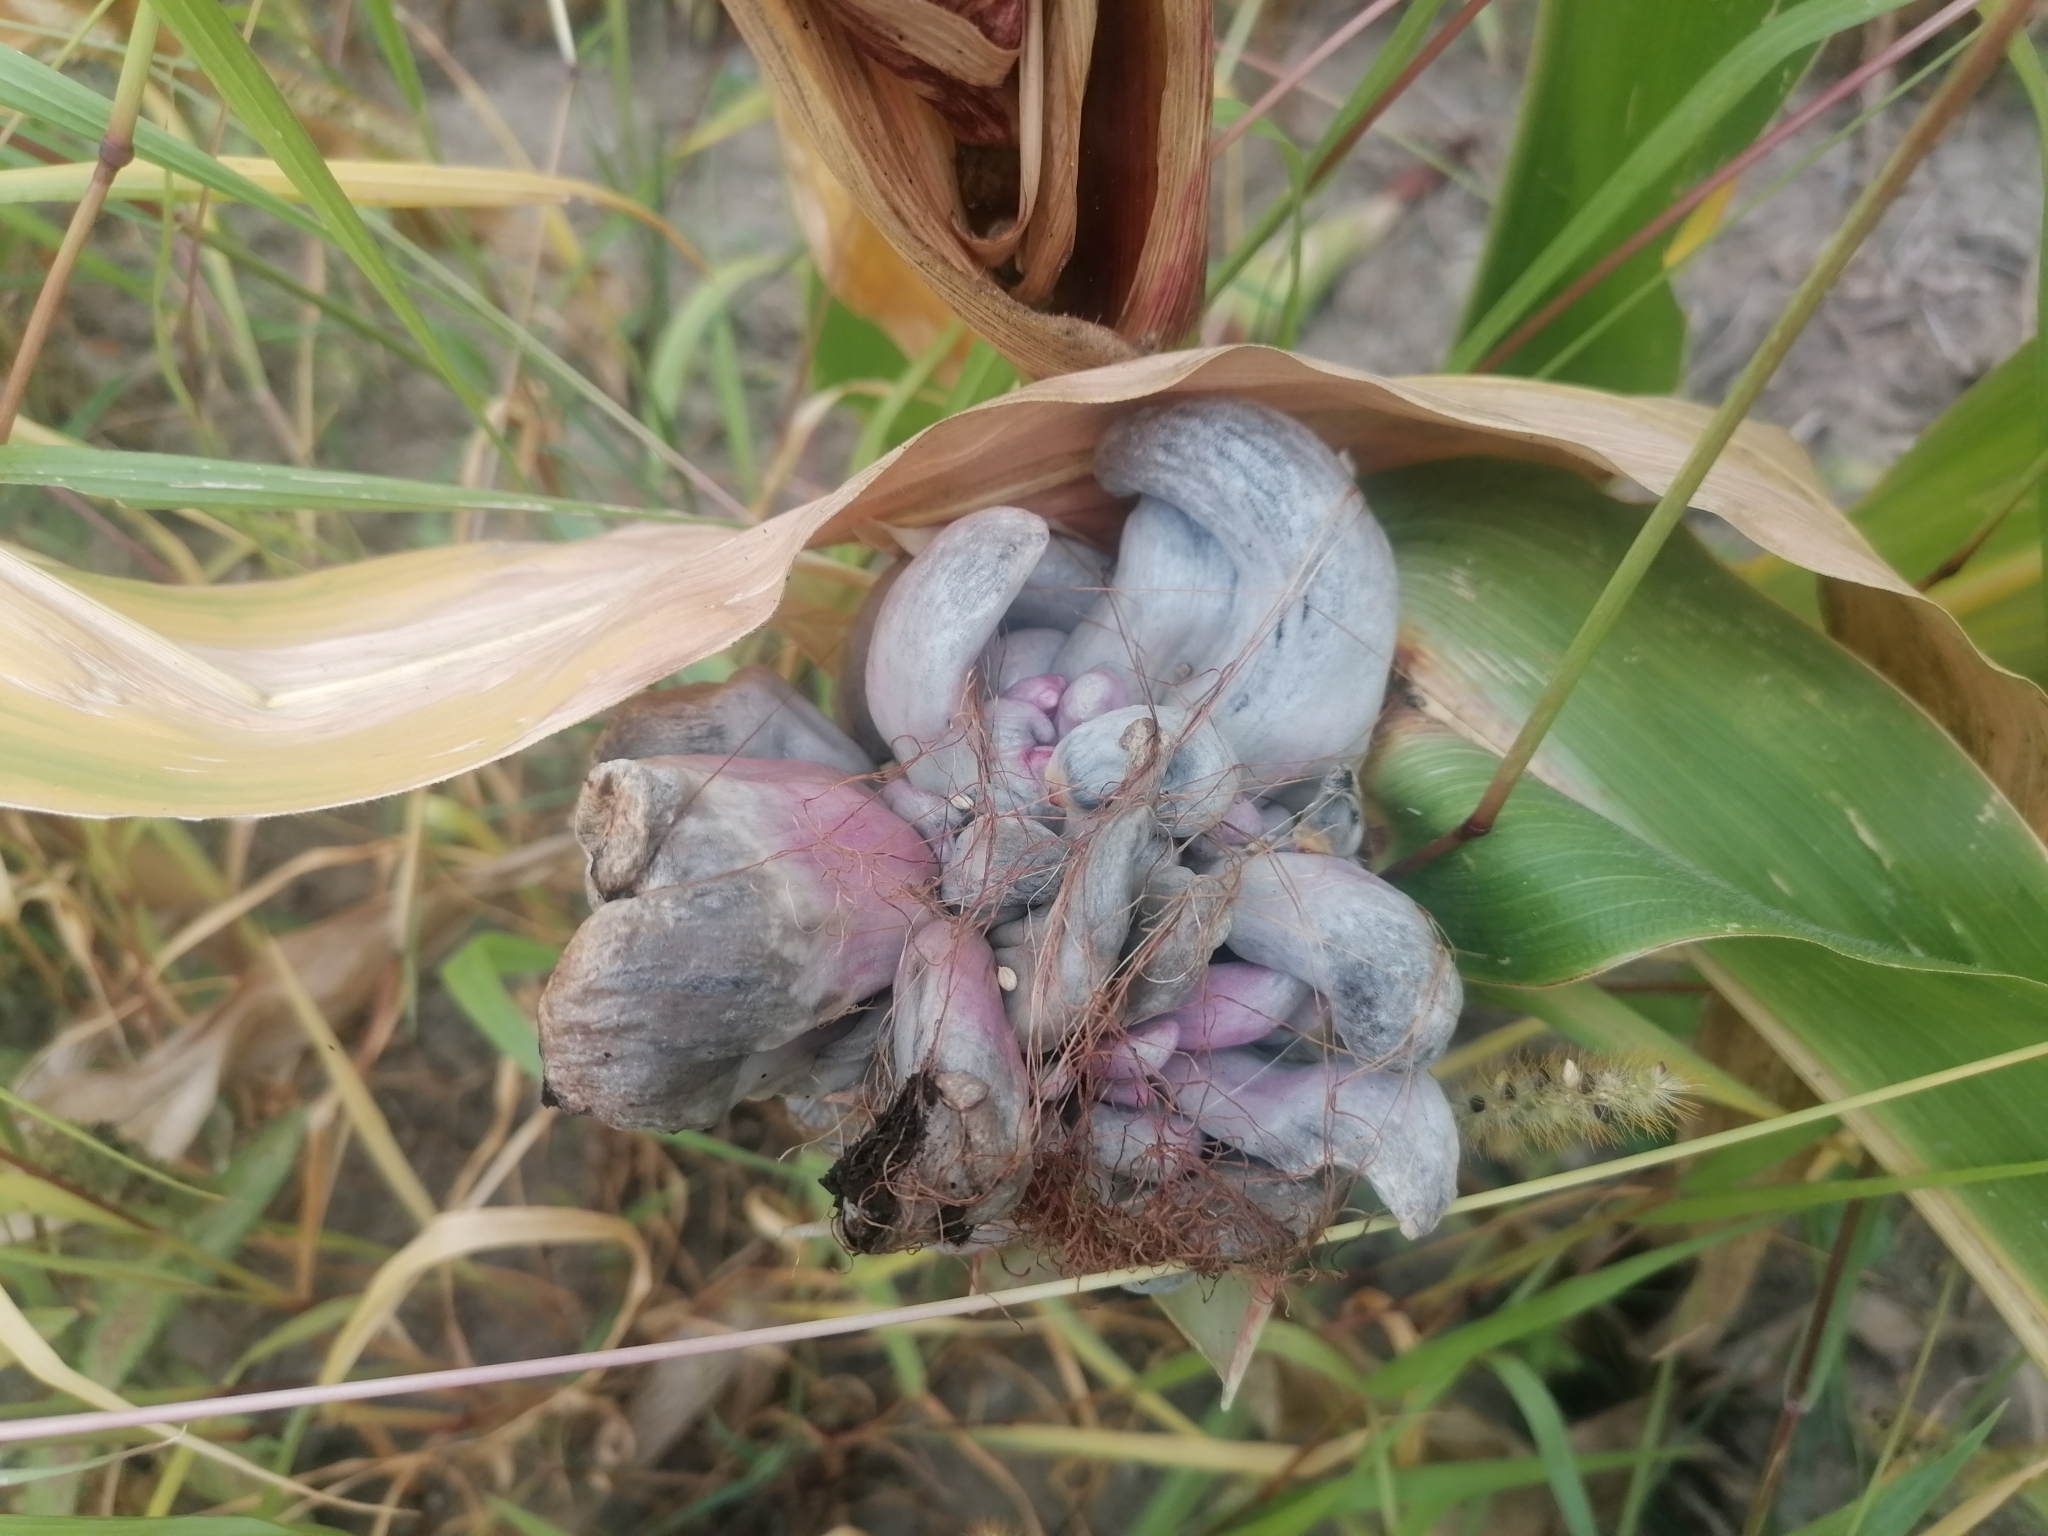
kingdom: Fungi
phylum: Basidiomycota
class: Ustilaginomycetes
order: Ustilaginales
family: Ustilaginaceae
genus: Mycosarcoma
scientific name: Mycosarcoma maydis
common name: Corn smut
